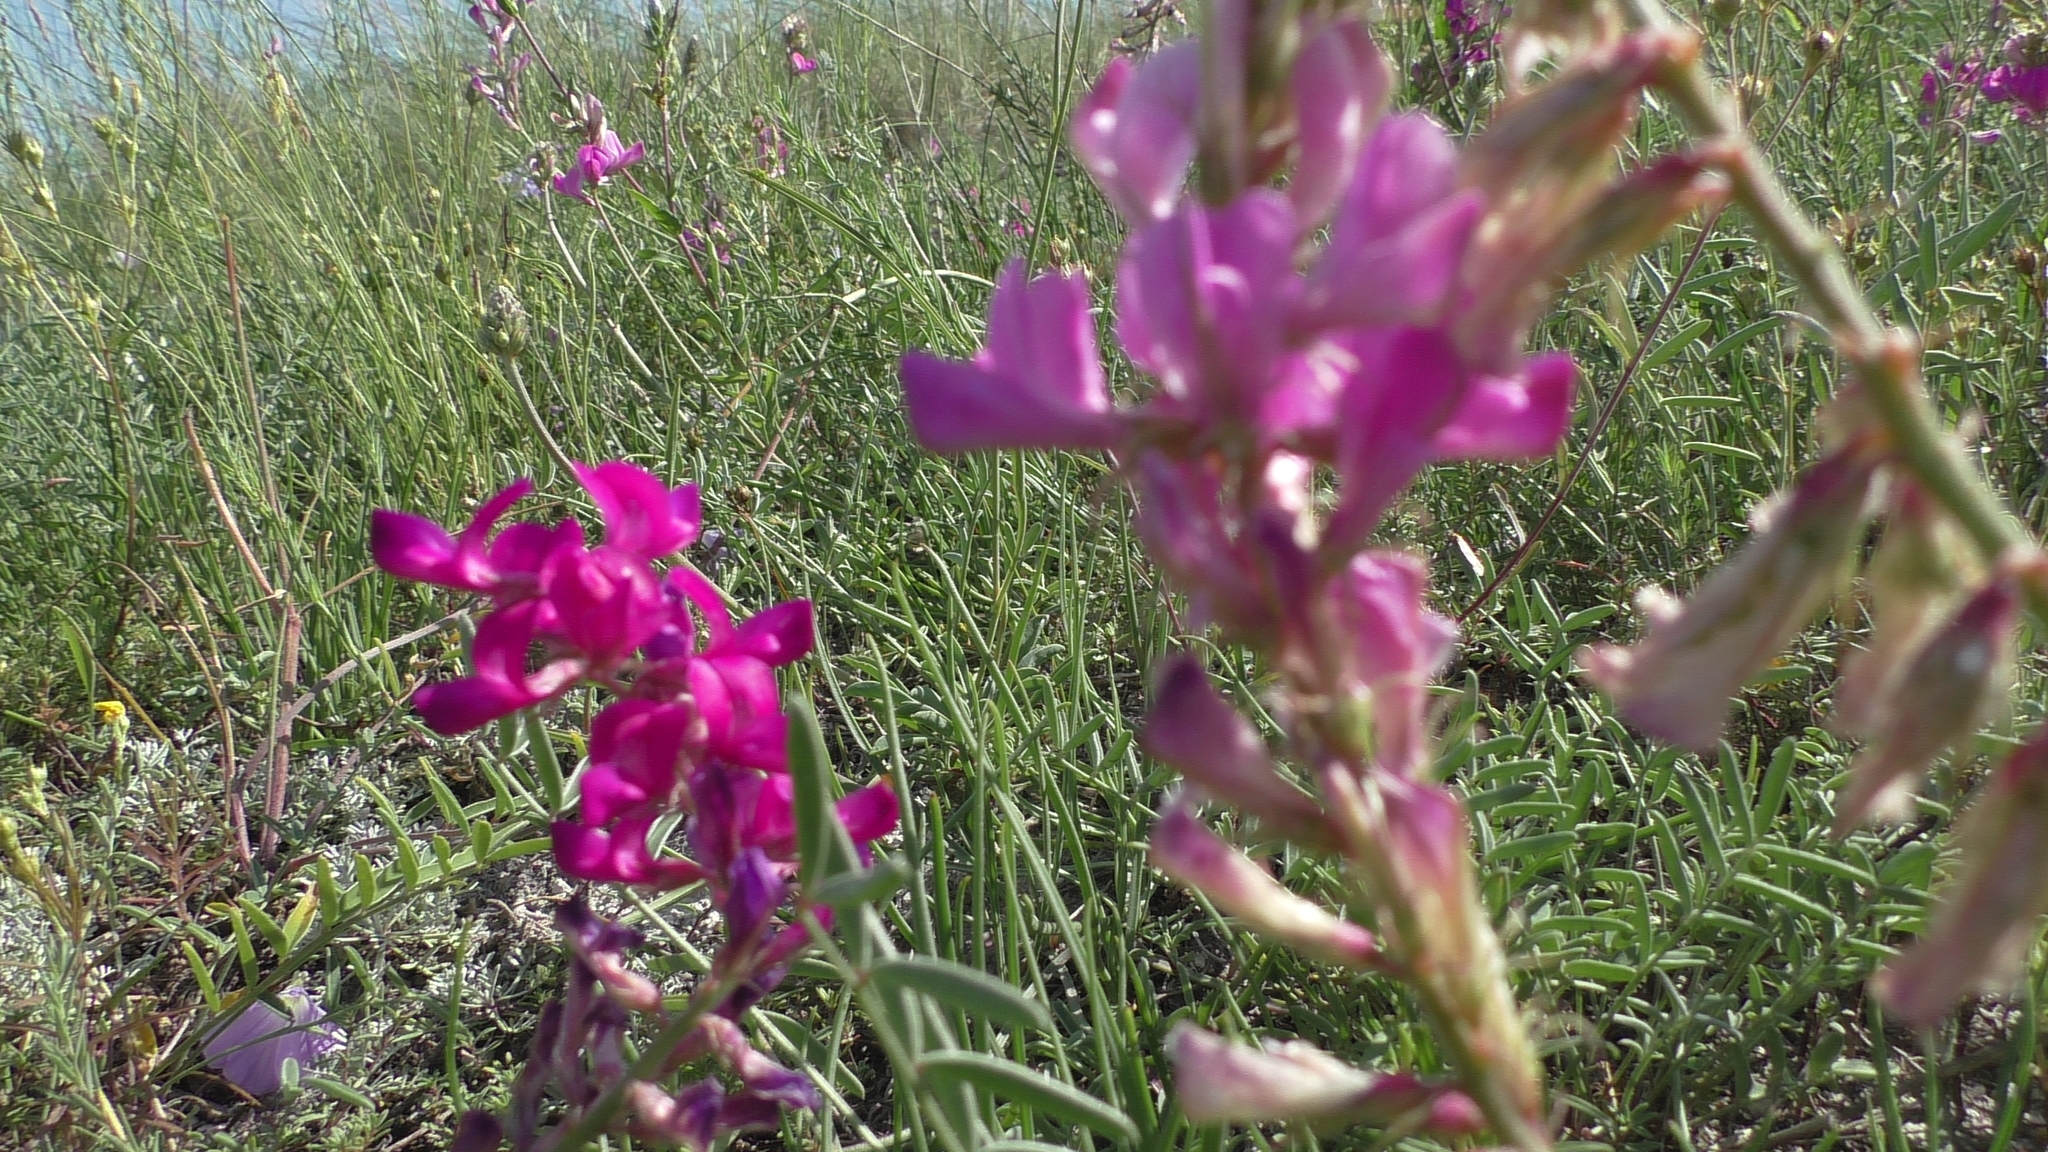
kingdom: Plantae
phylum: Tracheophyta
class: Magnoliopsida
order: Fabales
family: Fabaceae
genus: Hedysarum
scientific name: Hedysarum ucrainicum
